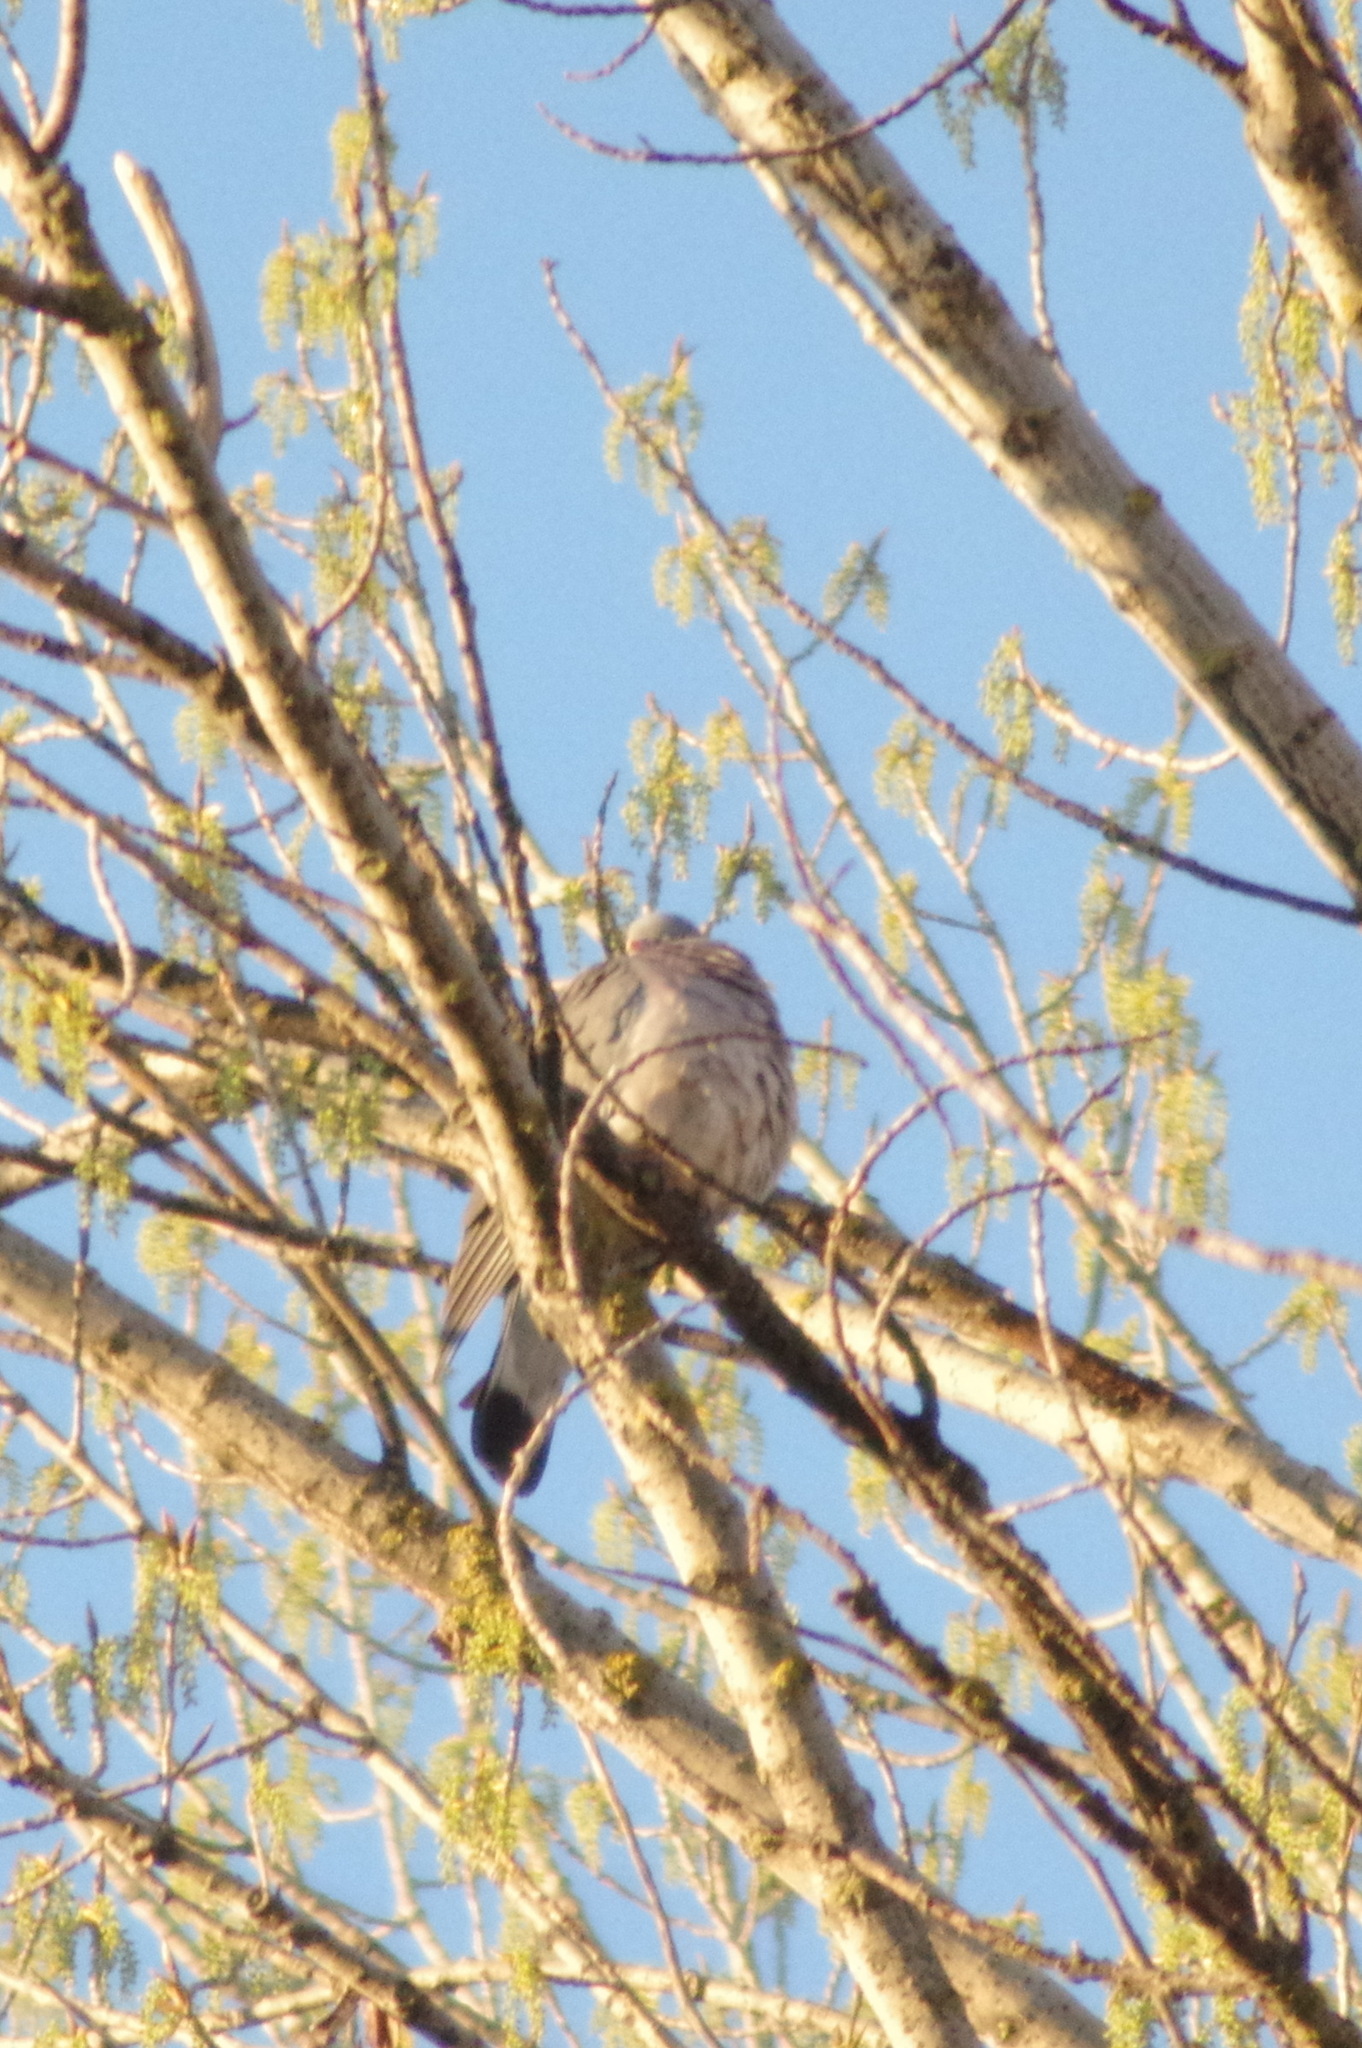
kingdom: Animalia
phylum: Chordata
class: Aves
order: Columbiformes
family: Columbidae
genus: Columba
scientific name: Columba palumbus
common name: Common wood pigeon
